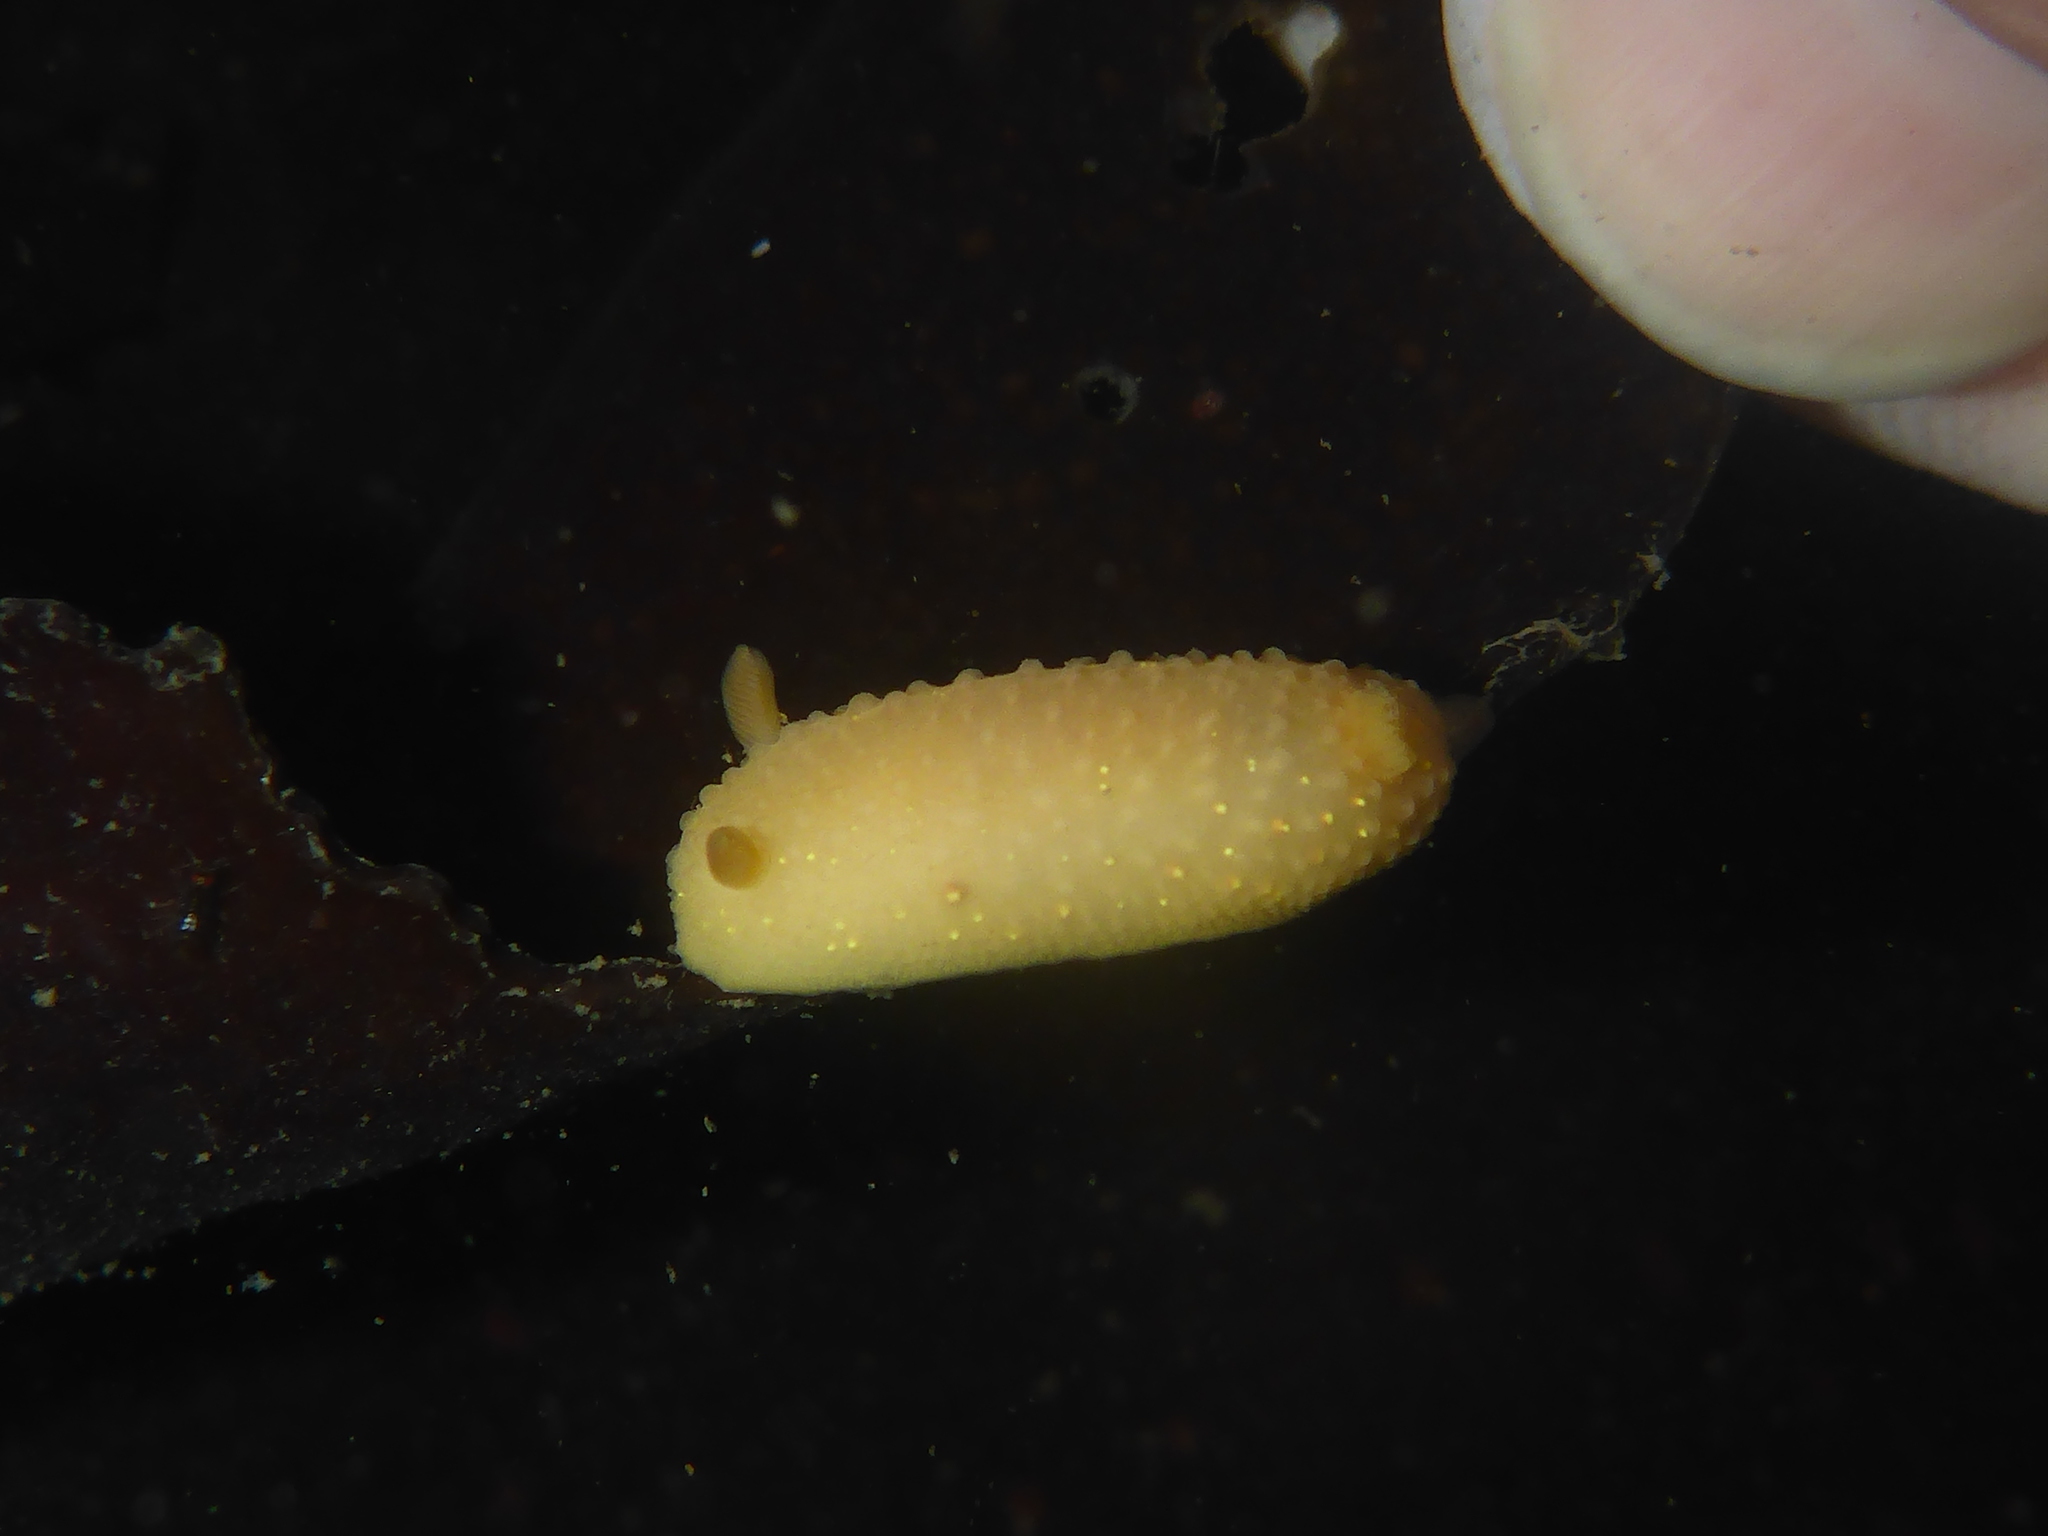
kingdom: Animalia
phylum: Mollusca
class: Gastropoda
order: Nudibranchia
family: Cadlinidae
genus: Cadlina
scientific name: Cadlina modesta
